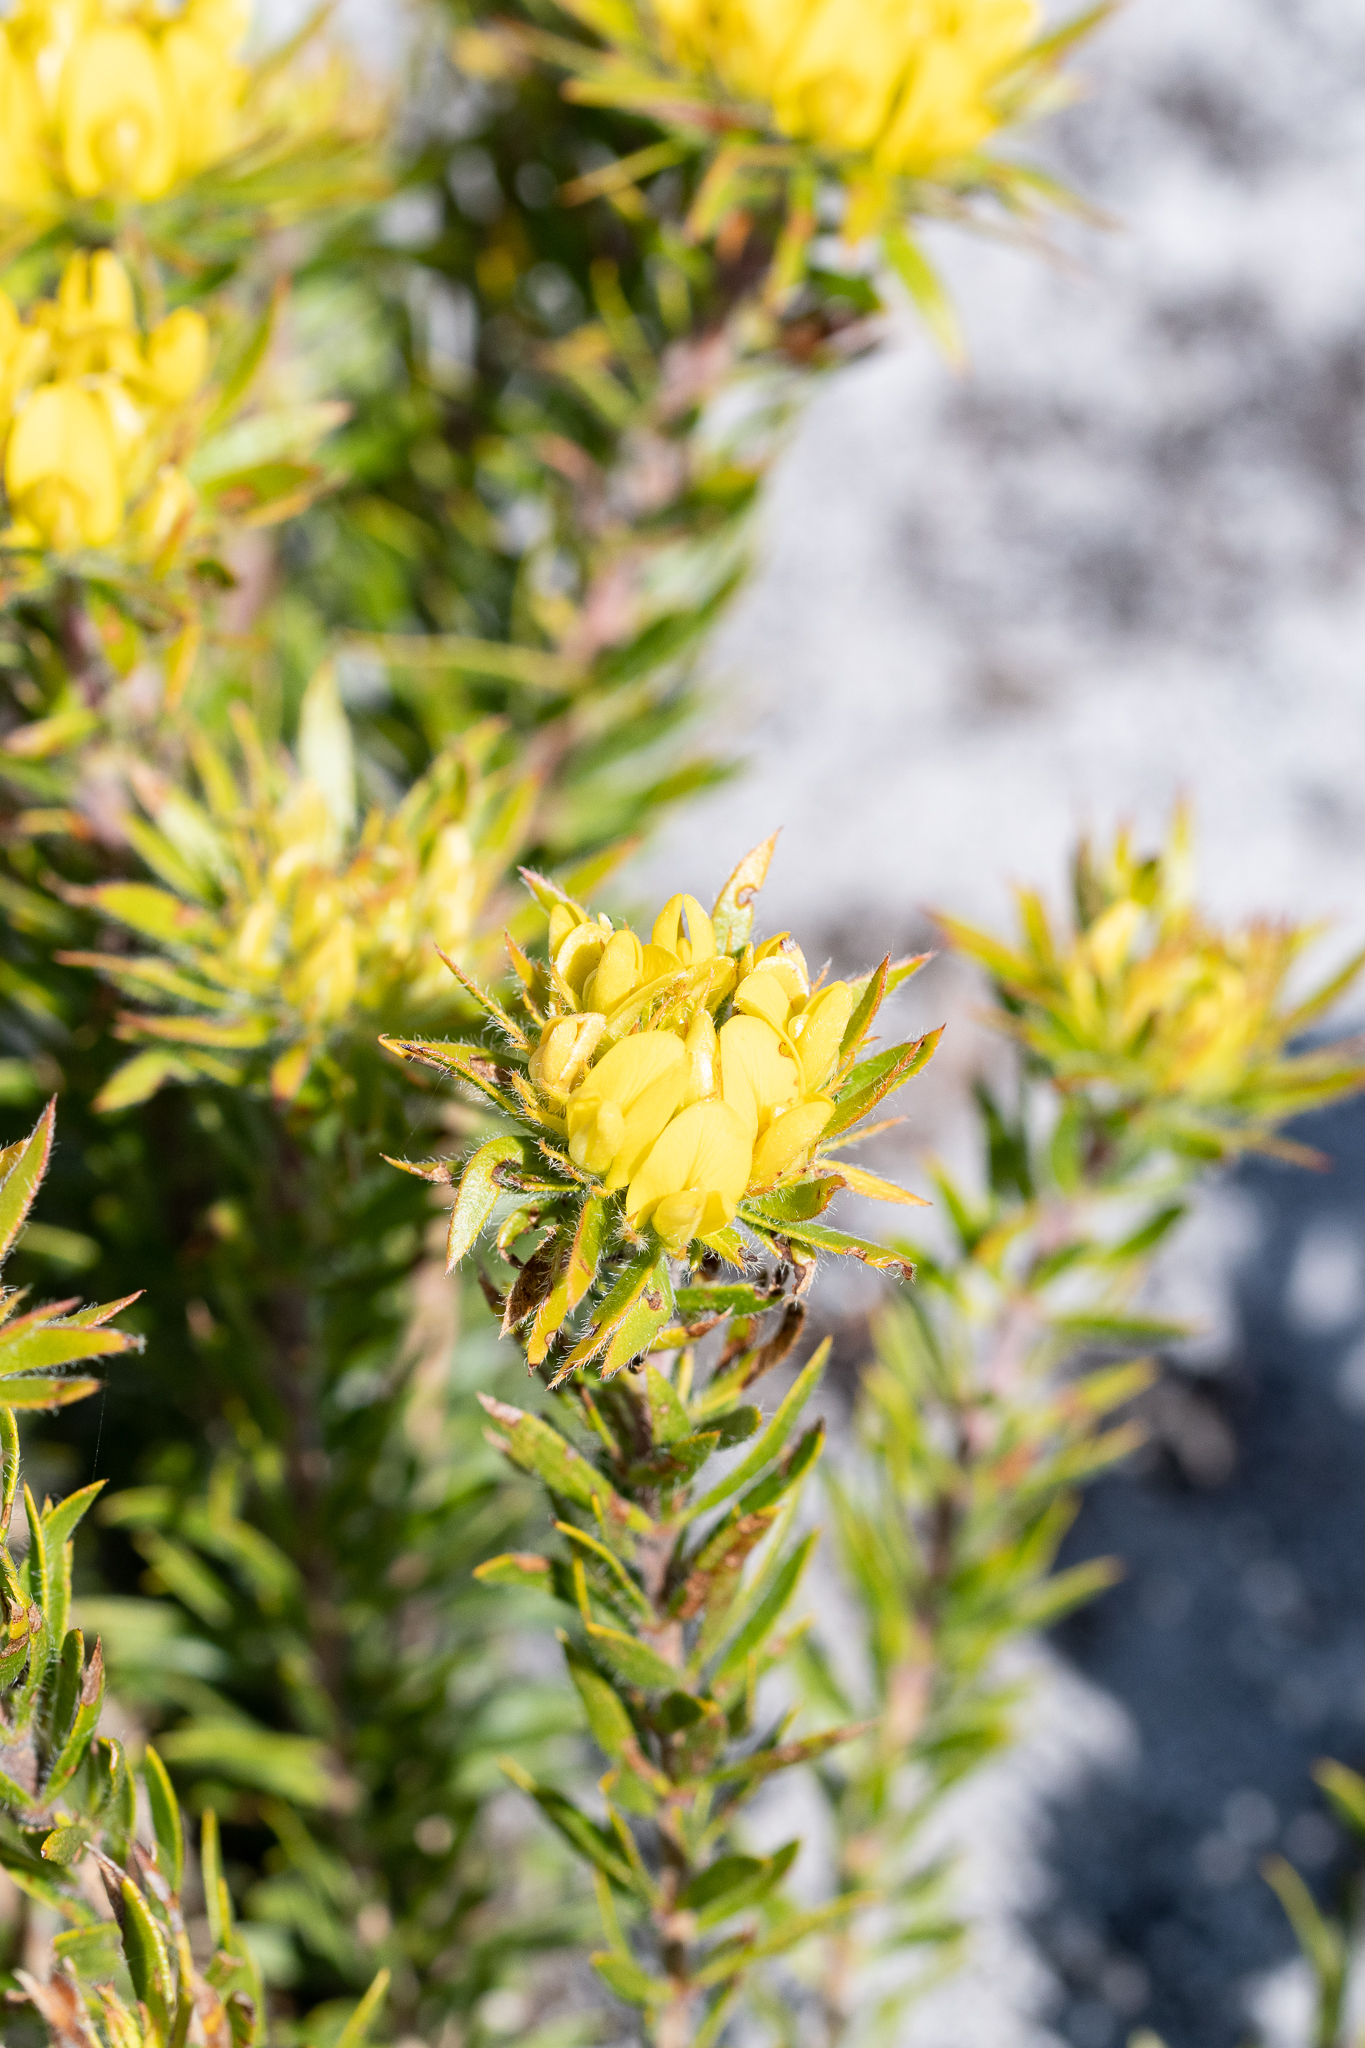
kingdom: Plantae
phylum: Tracheophyta
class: Magnoliopsida
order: Fabales
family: Fabaceae
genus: Aspalathus
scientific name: Aspalathus aspalathoides
